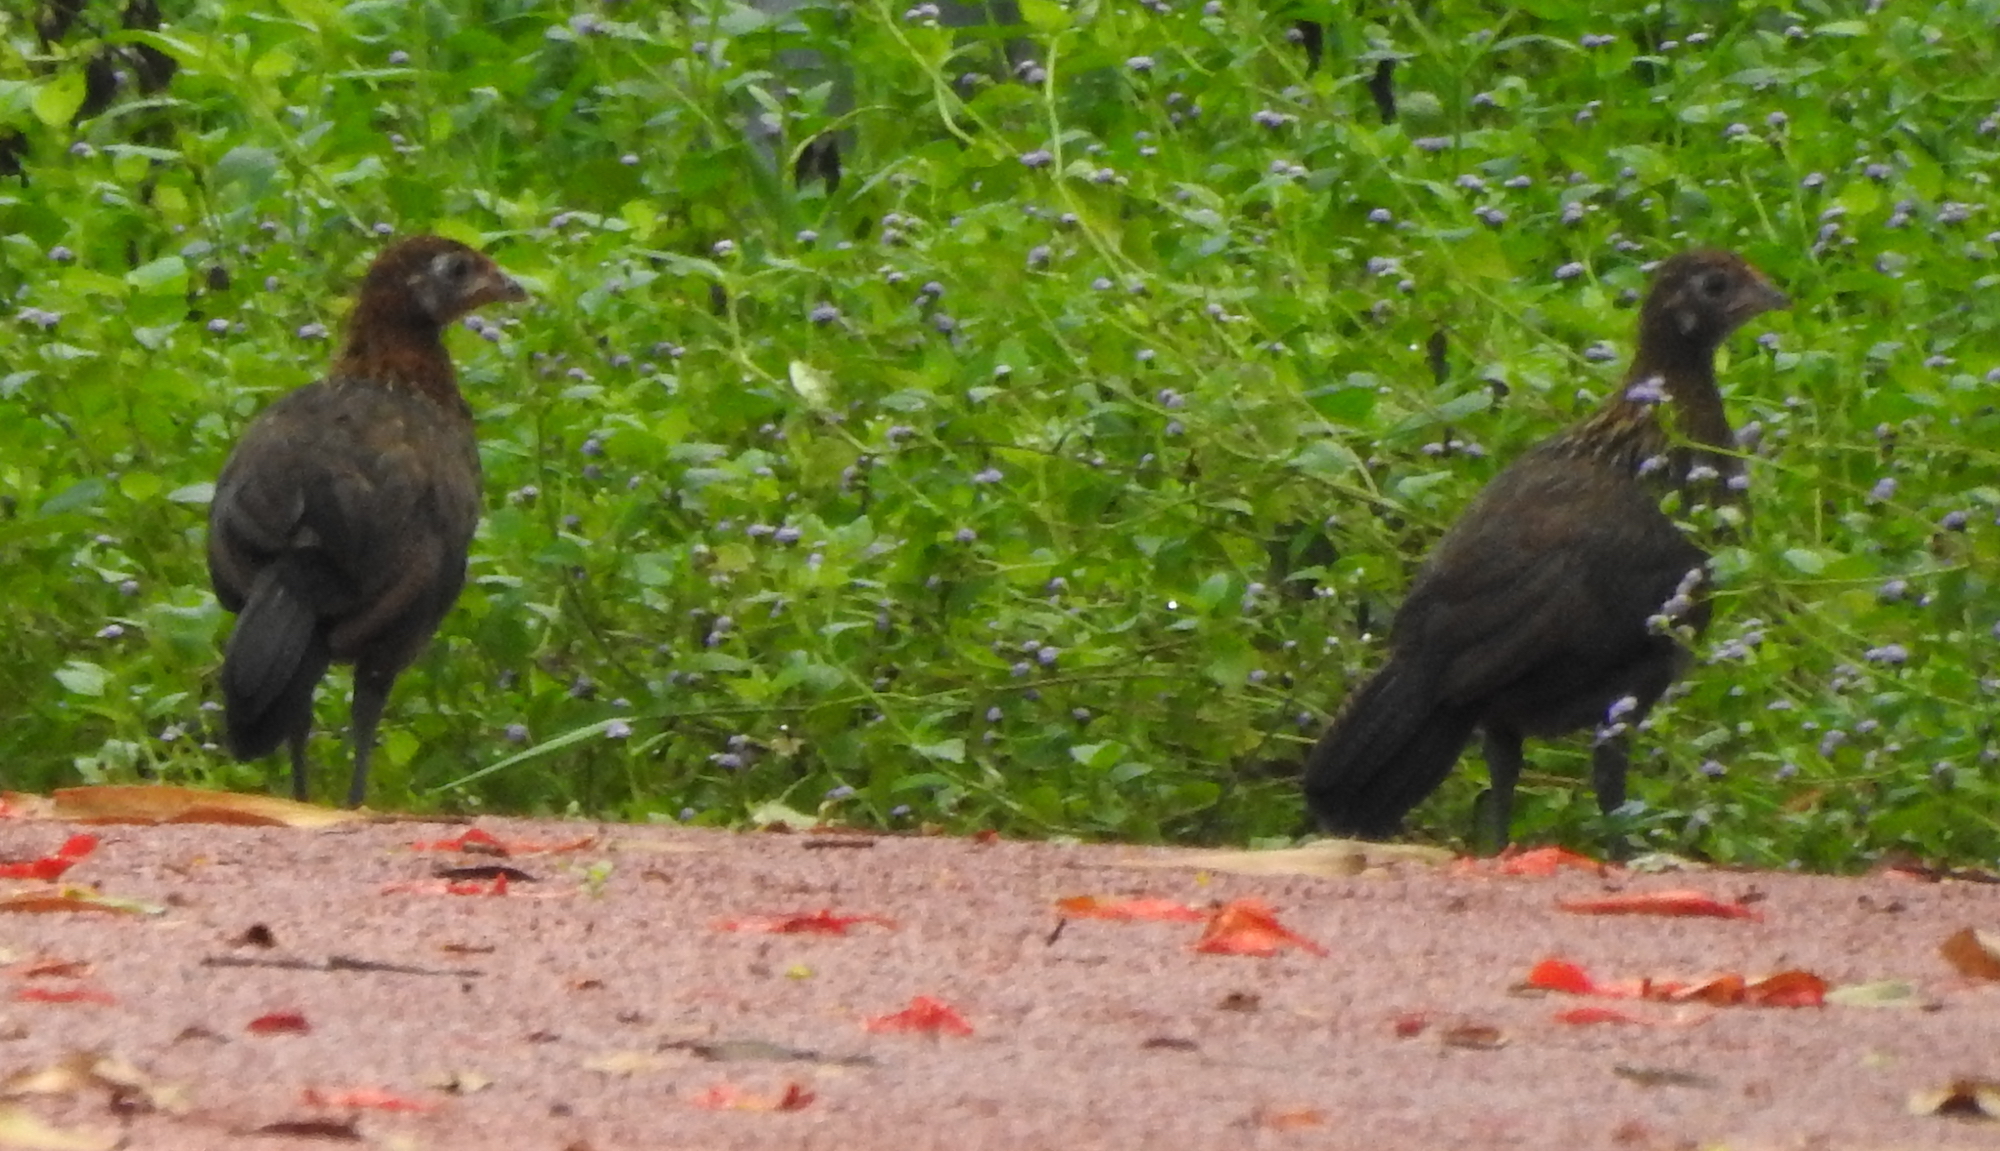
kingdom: Animalia
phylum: Chordata
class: Aves
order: Galliformes
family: Phasianidae
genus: Gallus
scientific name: Gallus gallus
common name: Red junglefowl
